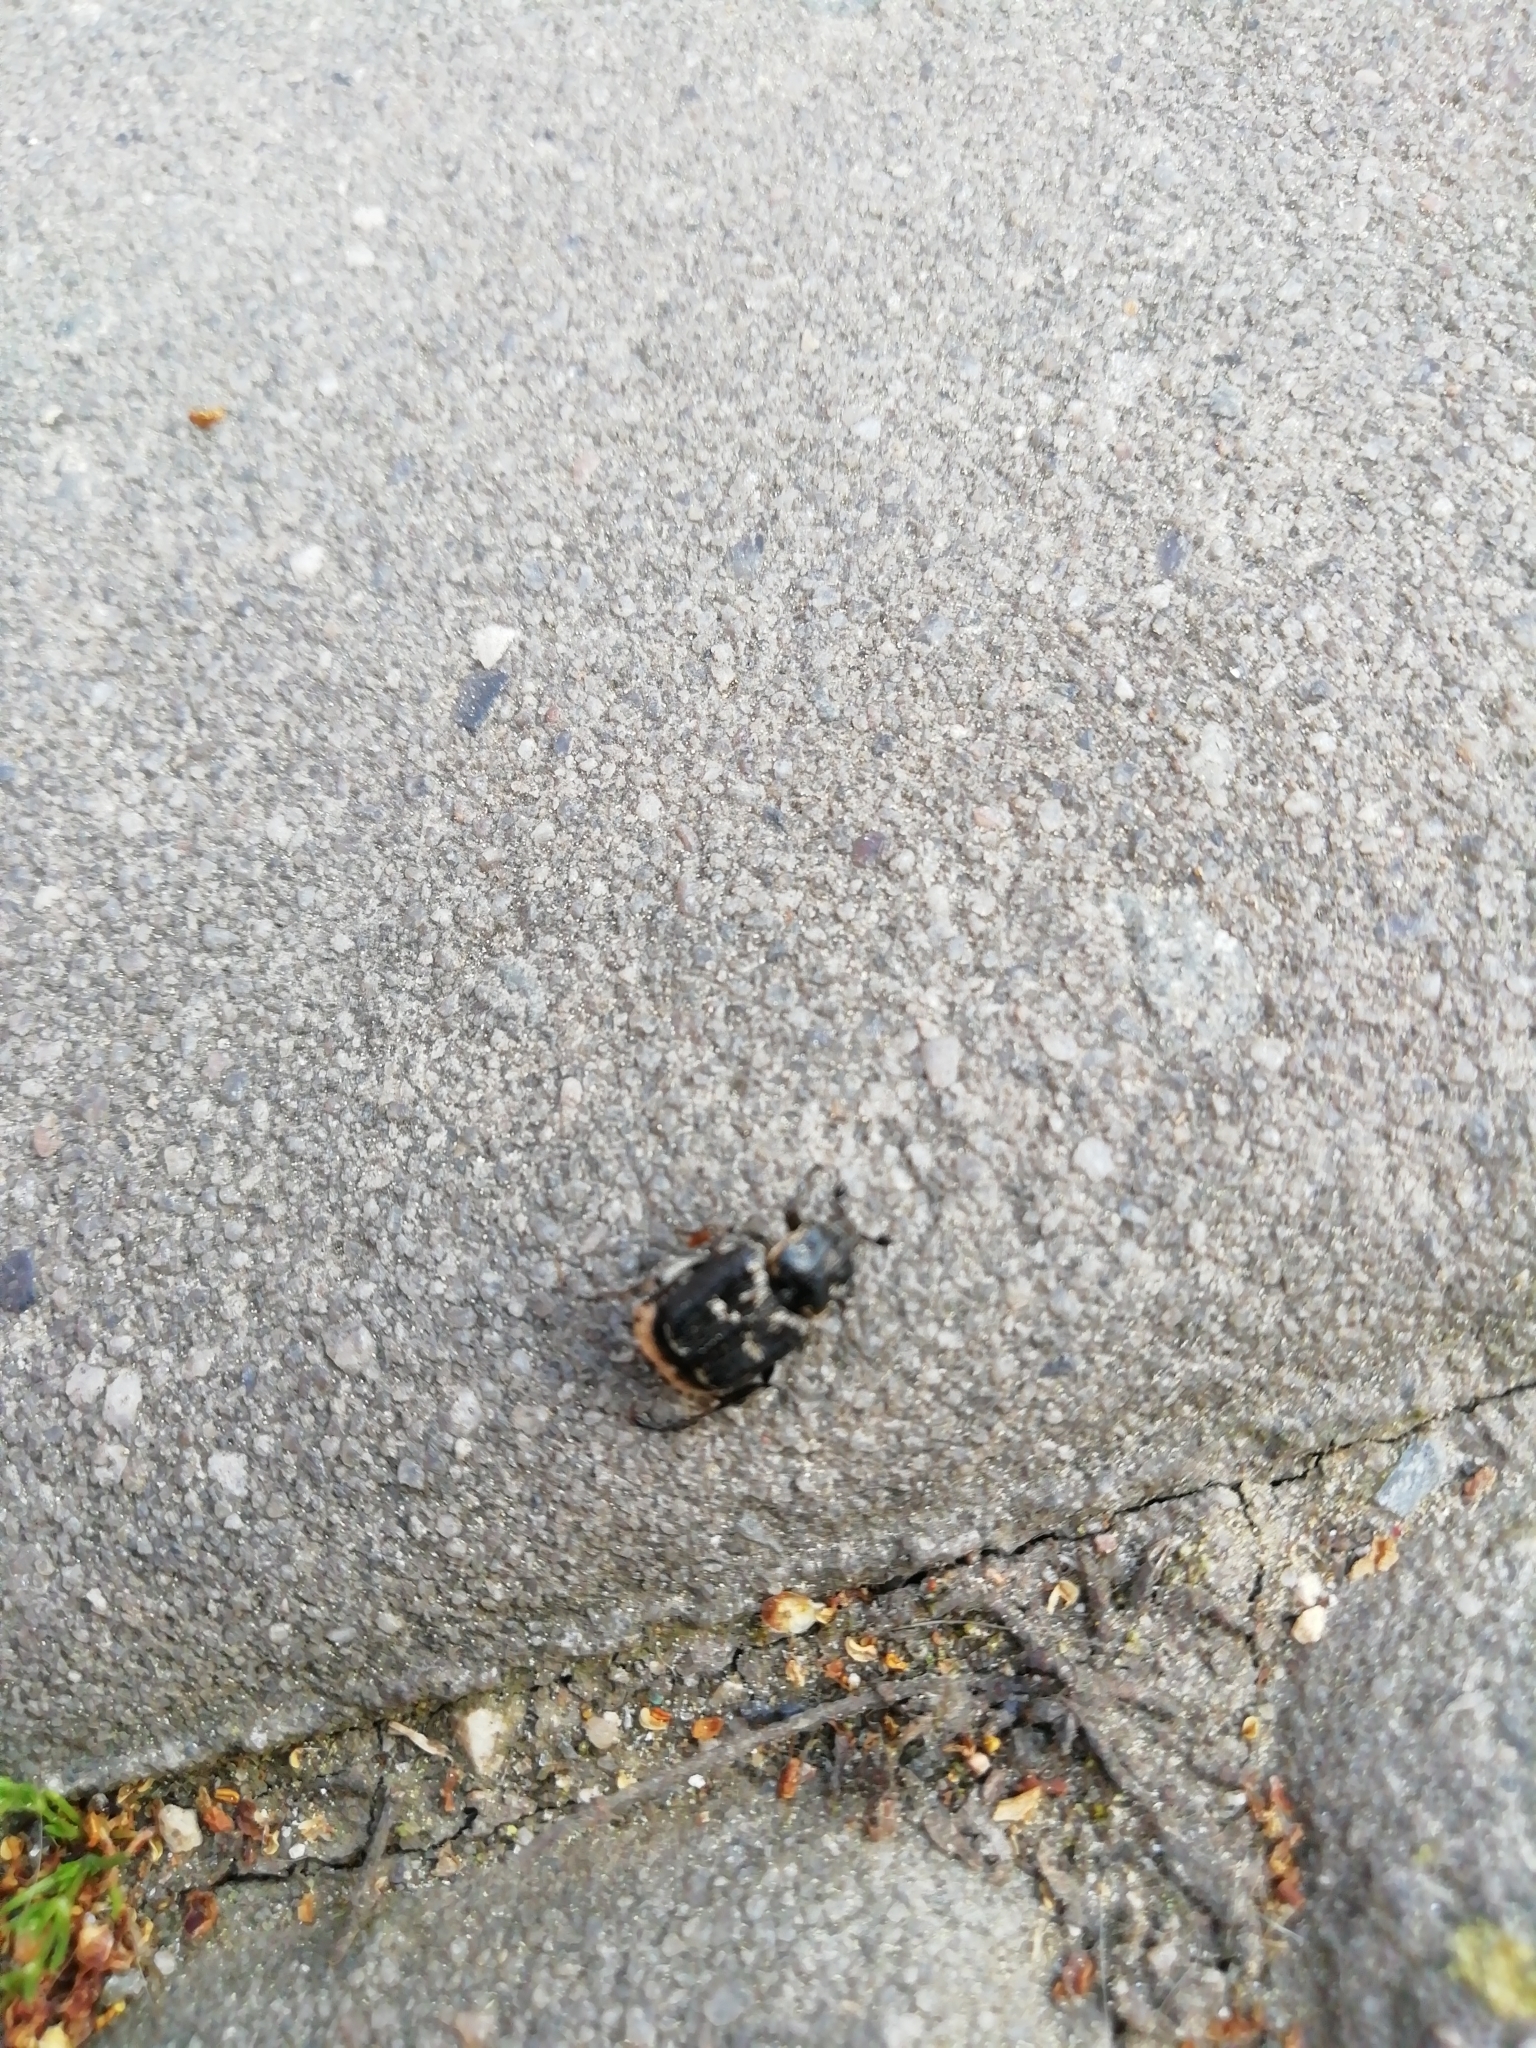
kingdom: Animalia
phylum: Arthropoda
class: Insecta
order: Coleoptera
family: Scarabaeidae
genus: Valgus
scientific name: Valgus hemipterus
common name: Bug flower chafer
